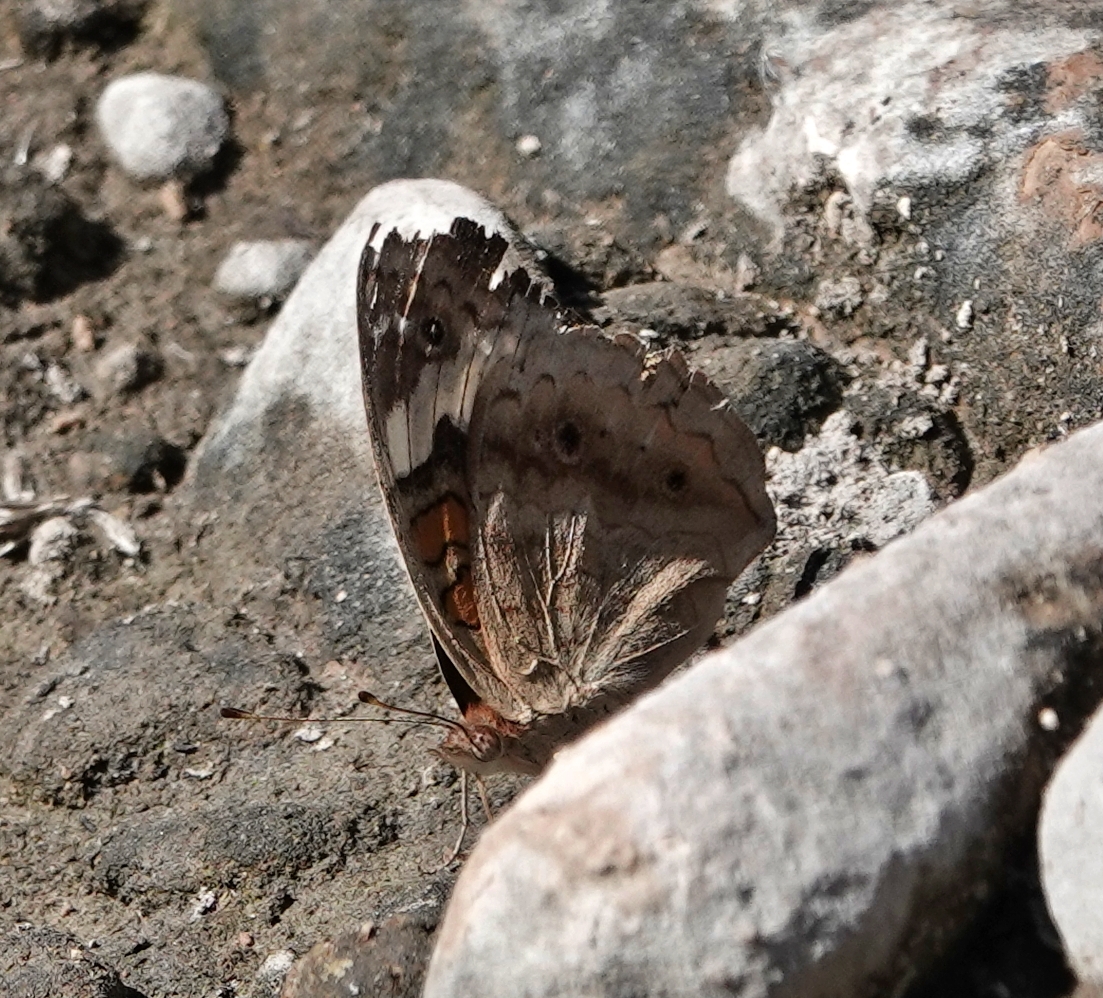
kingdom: Animalia
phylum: Arthropoda
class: Insecta
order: Lepidoptera
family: Nymphalidae
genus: Junonia
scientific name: Junonia coenia
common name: Common buckeye
